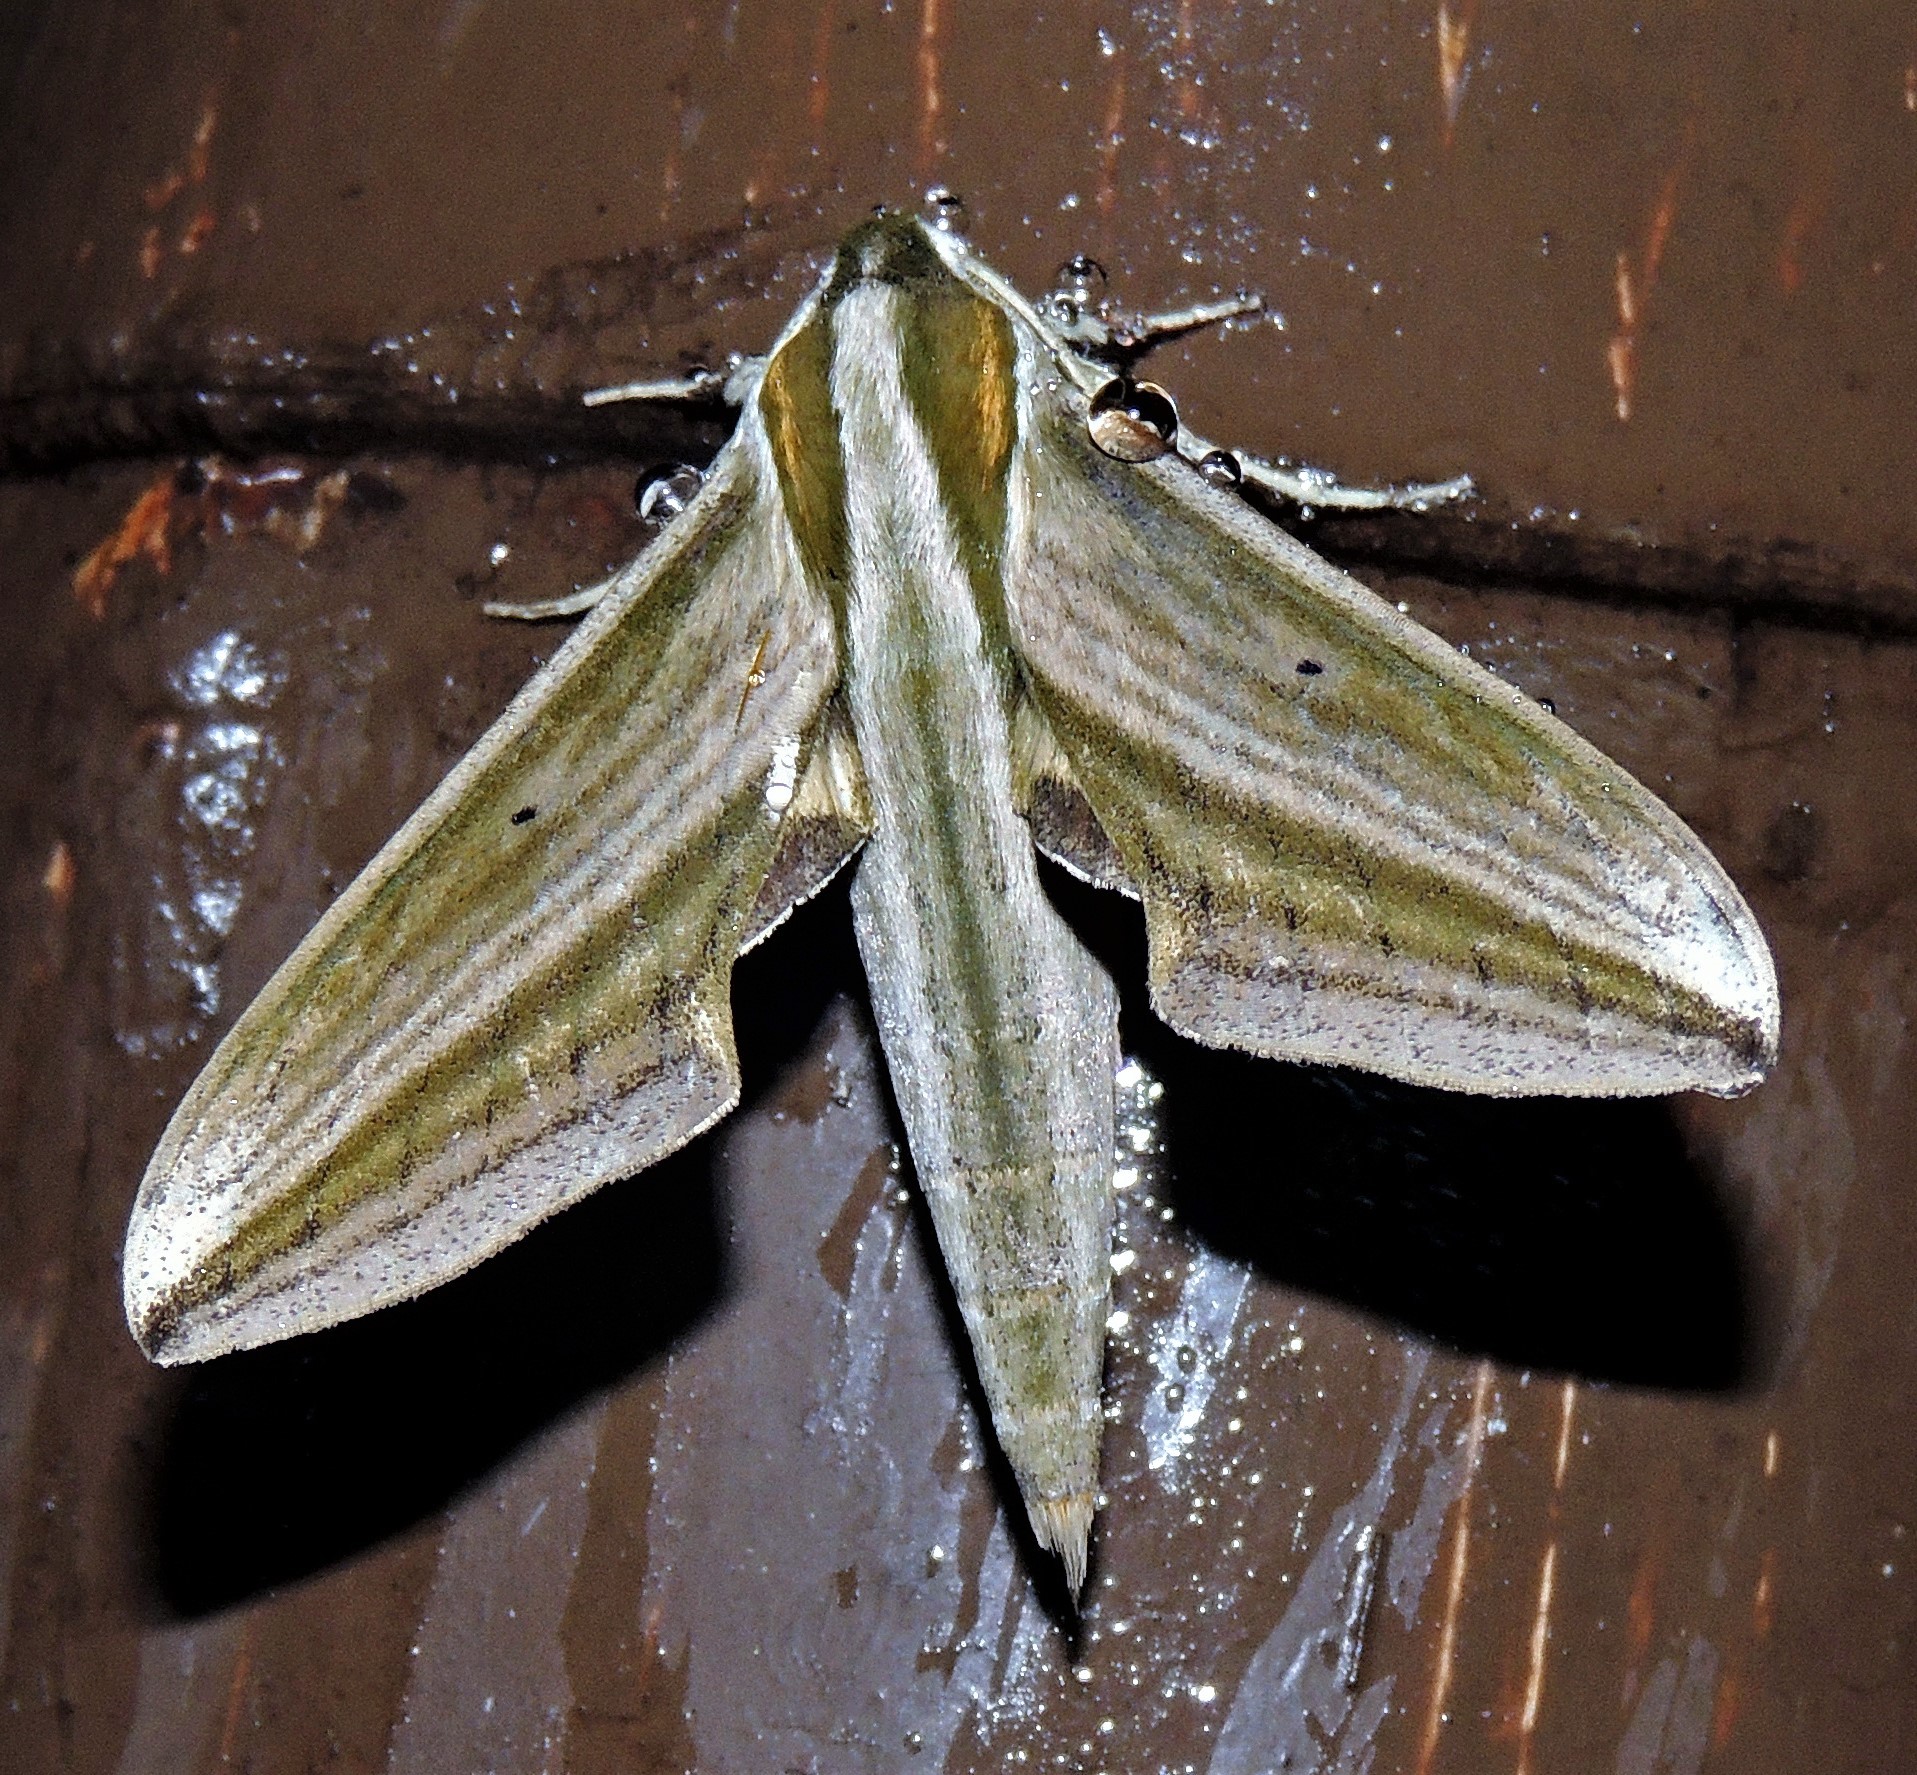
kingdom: Animalia
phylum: Arthropoda
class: Insecta
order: Lepidoptera
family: Sphingidae
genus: Xylophanes
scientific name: Xylophanes isaon
